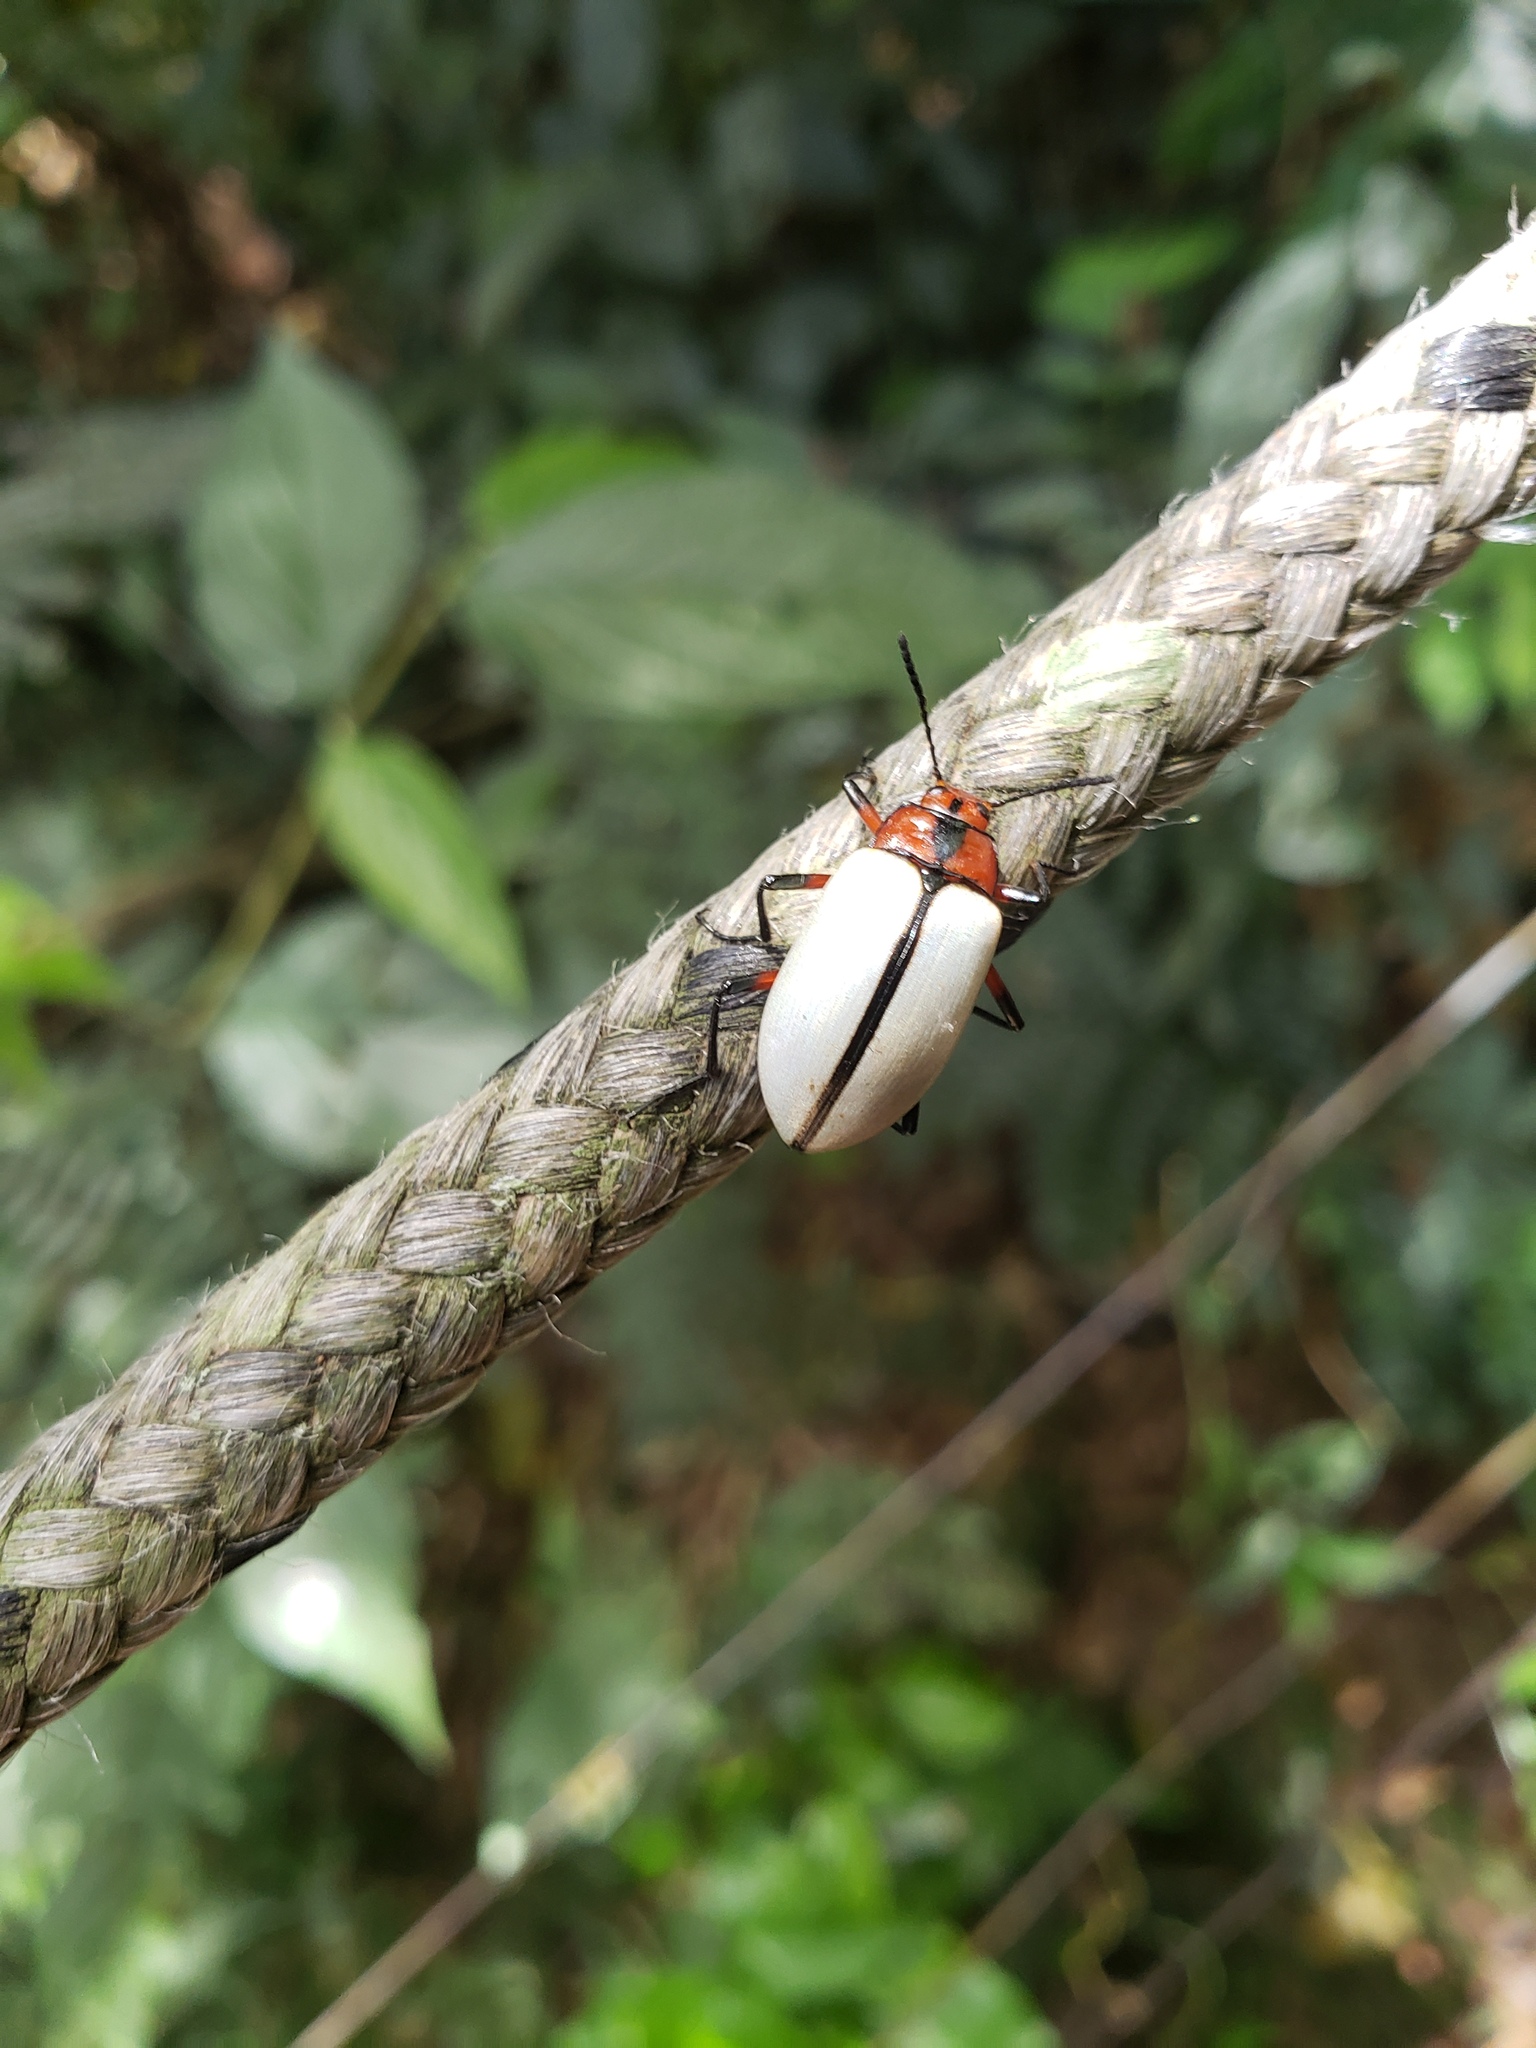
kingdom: Animalia
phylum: Arthropoda
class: Insecta
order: Coleoptera
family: Tenebrionidae
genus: Poecilesthus
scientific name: Poecilesthus
